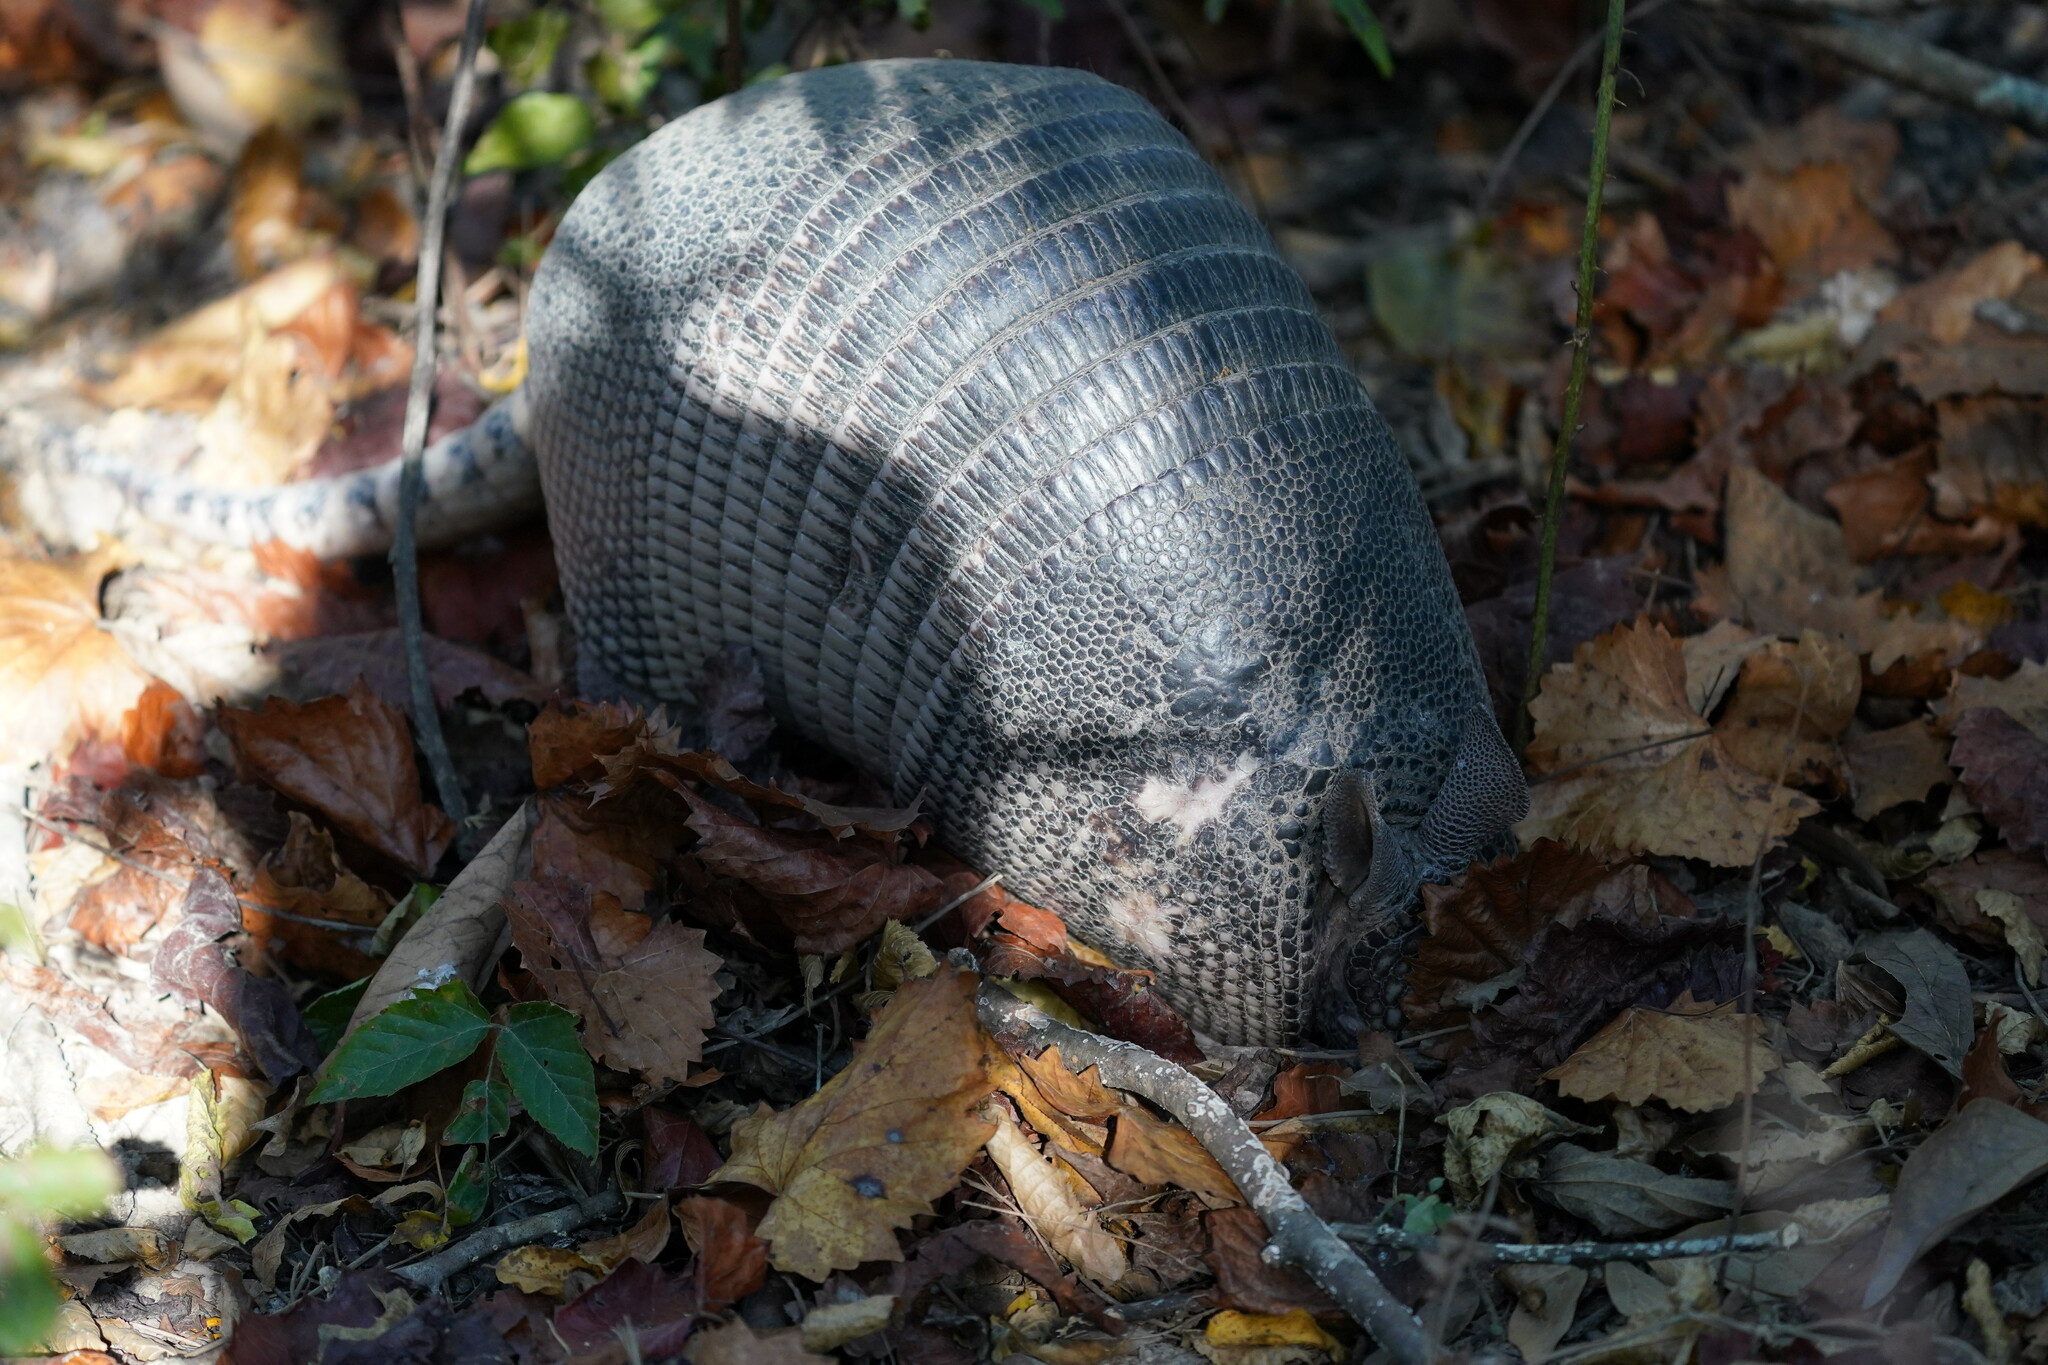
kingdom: Animalia
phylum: Chordata
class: Mammalia
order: Cingulata
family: Dasypodidae
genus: Dasypus
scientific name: Dasypus novemcinctus
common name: Nine-banded armadillo
